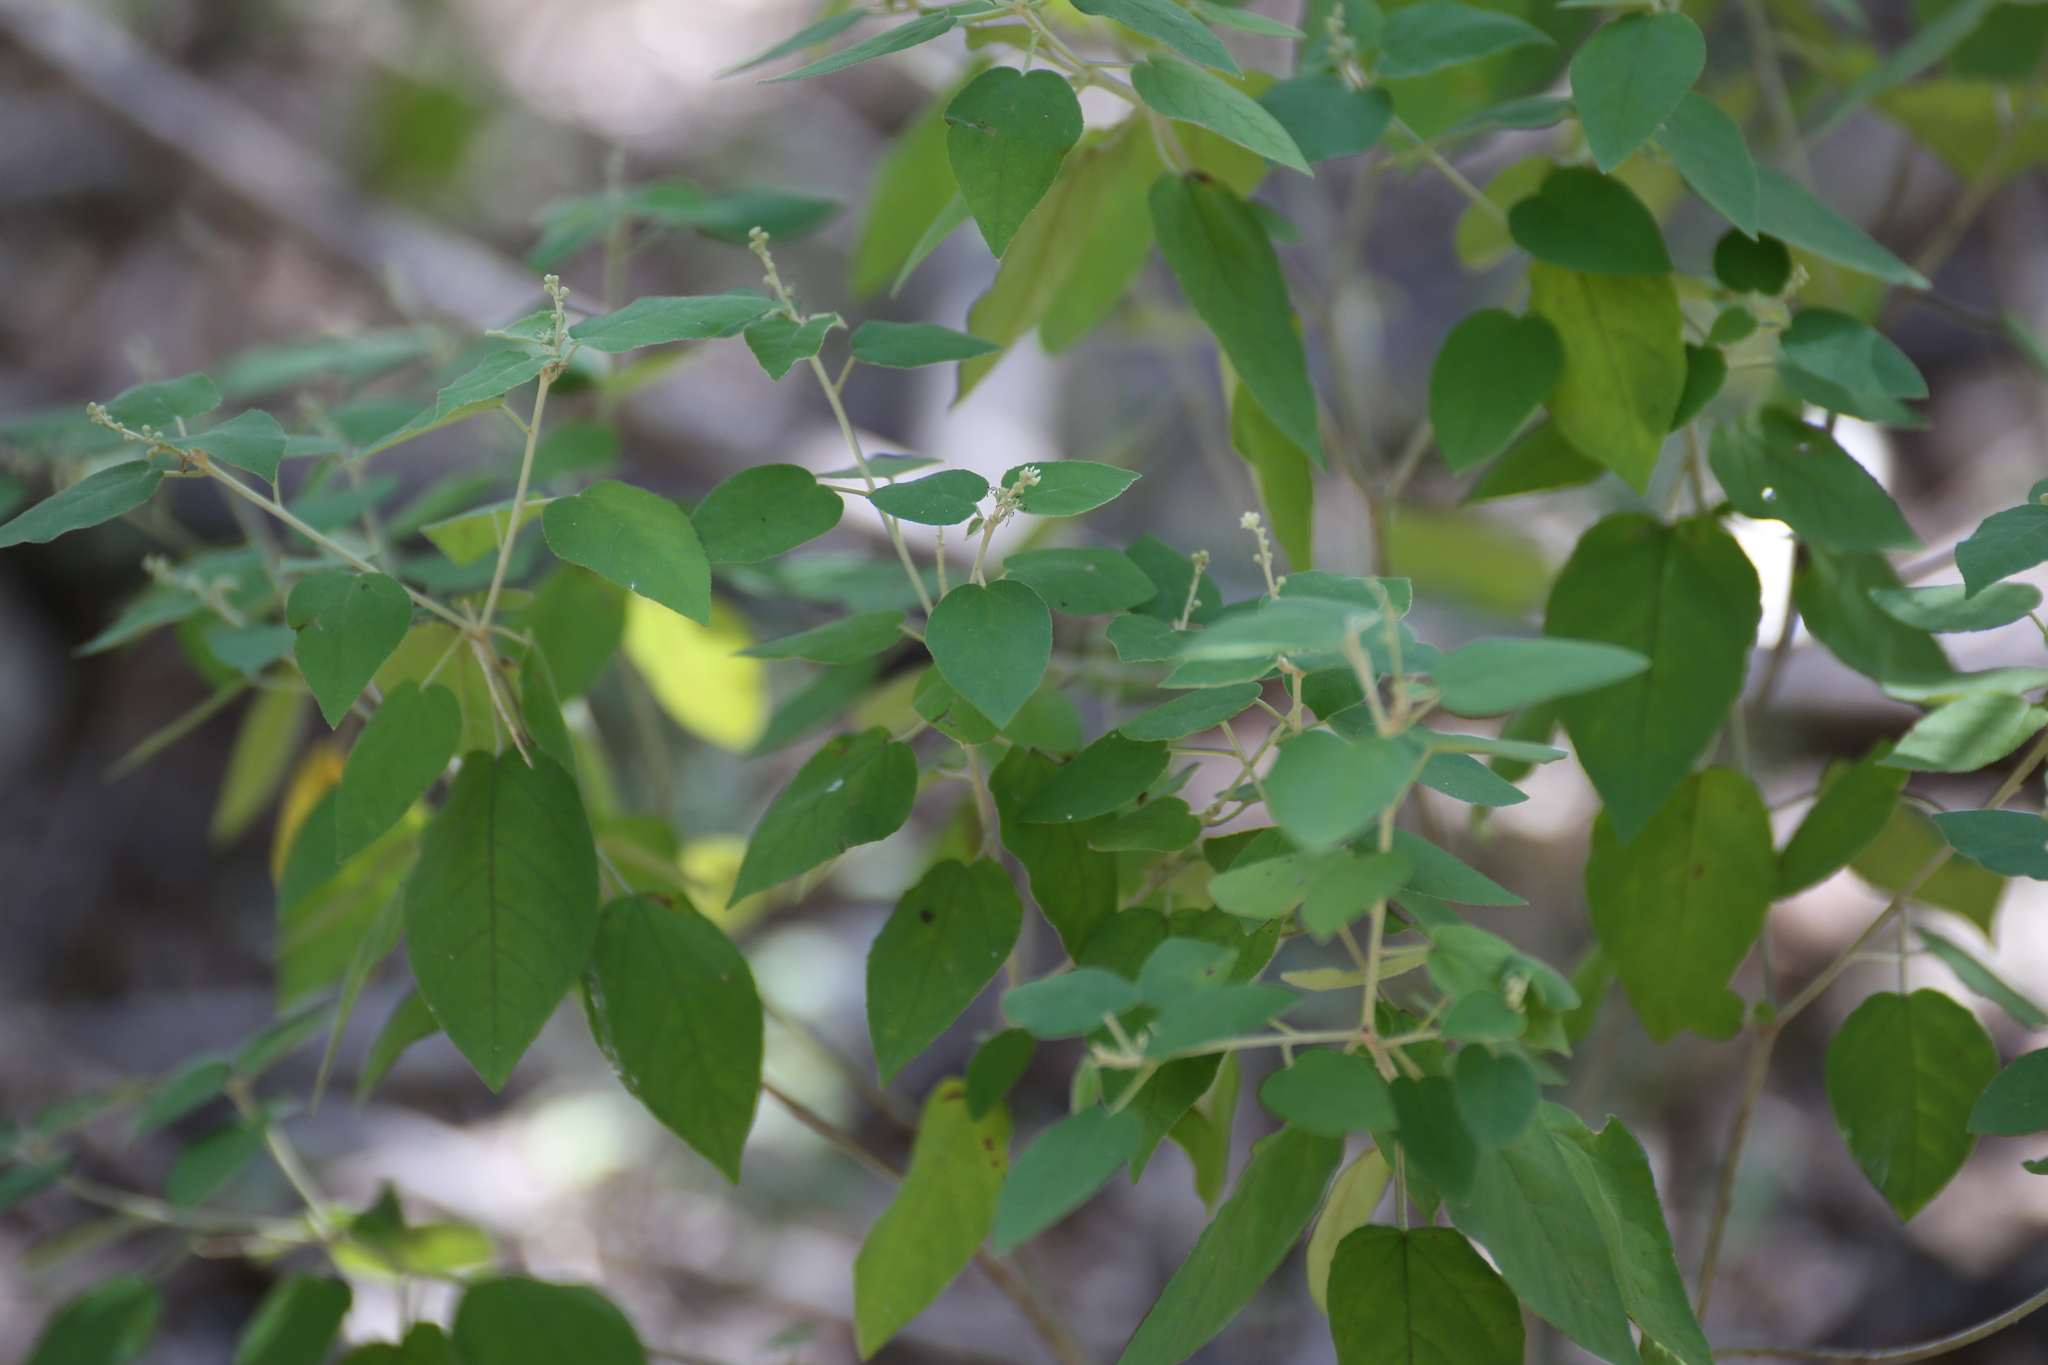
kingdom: Plantae
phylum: Tracheophyta
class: Magnoliopsida
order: Malpighiales
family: Euphorbiaceae
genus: Croton
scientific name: Croton fruticulosus
